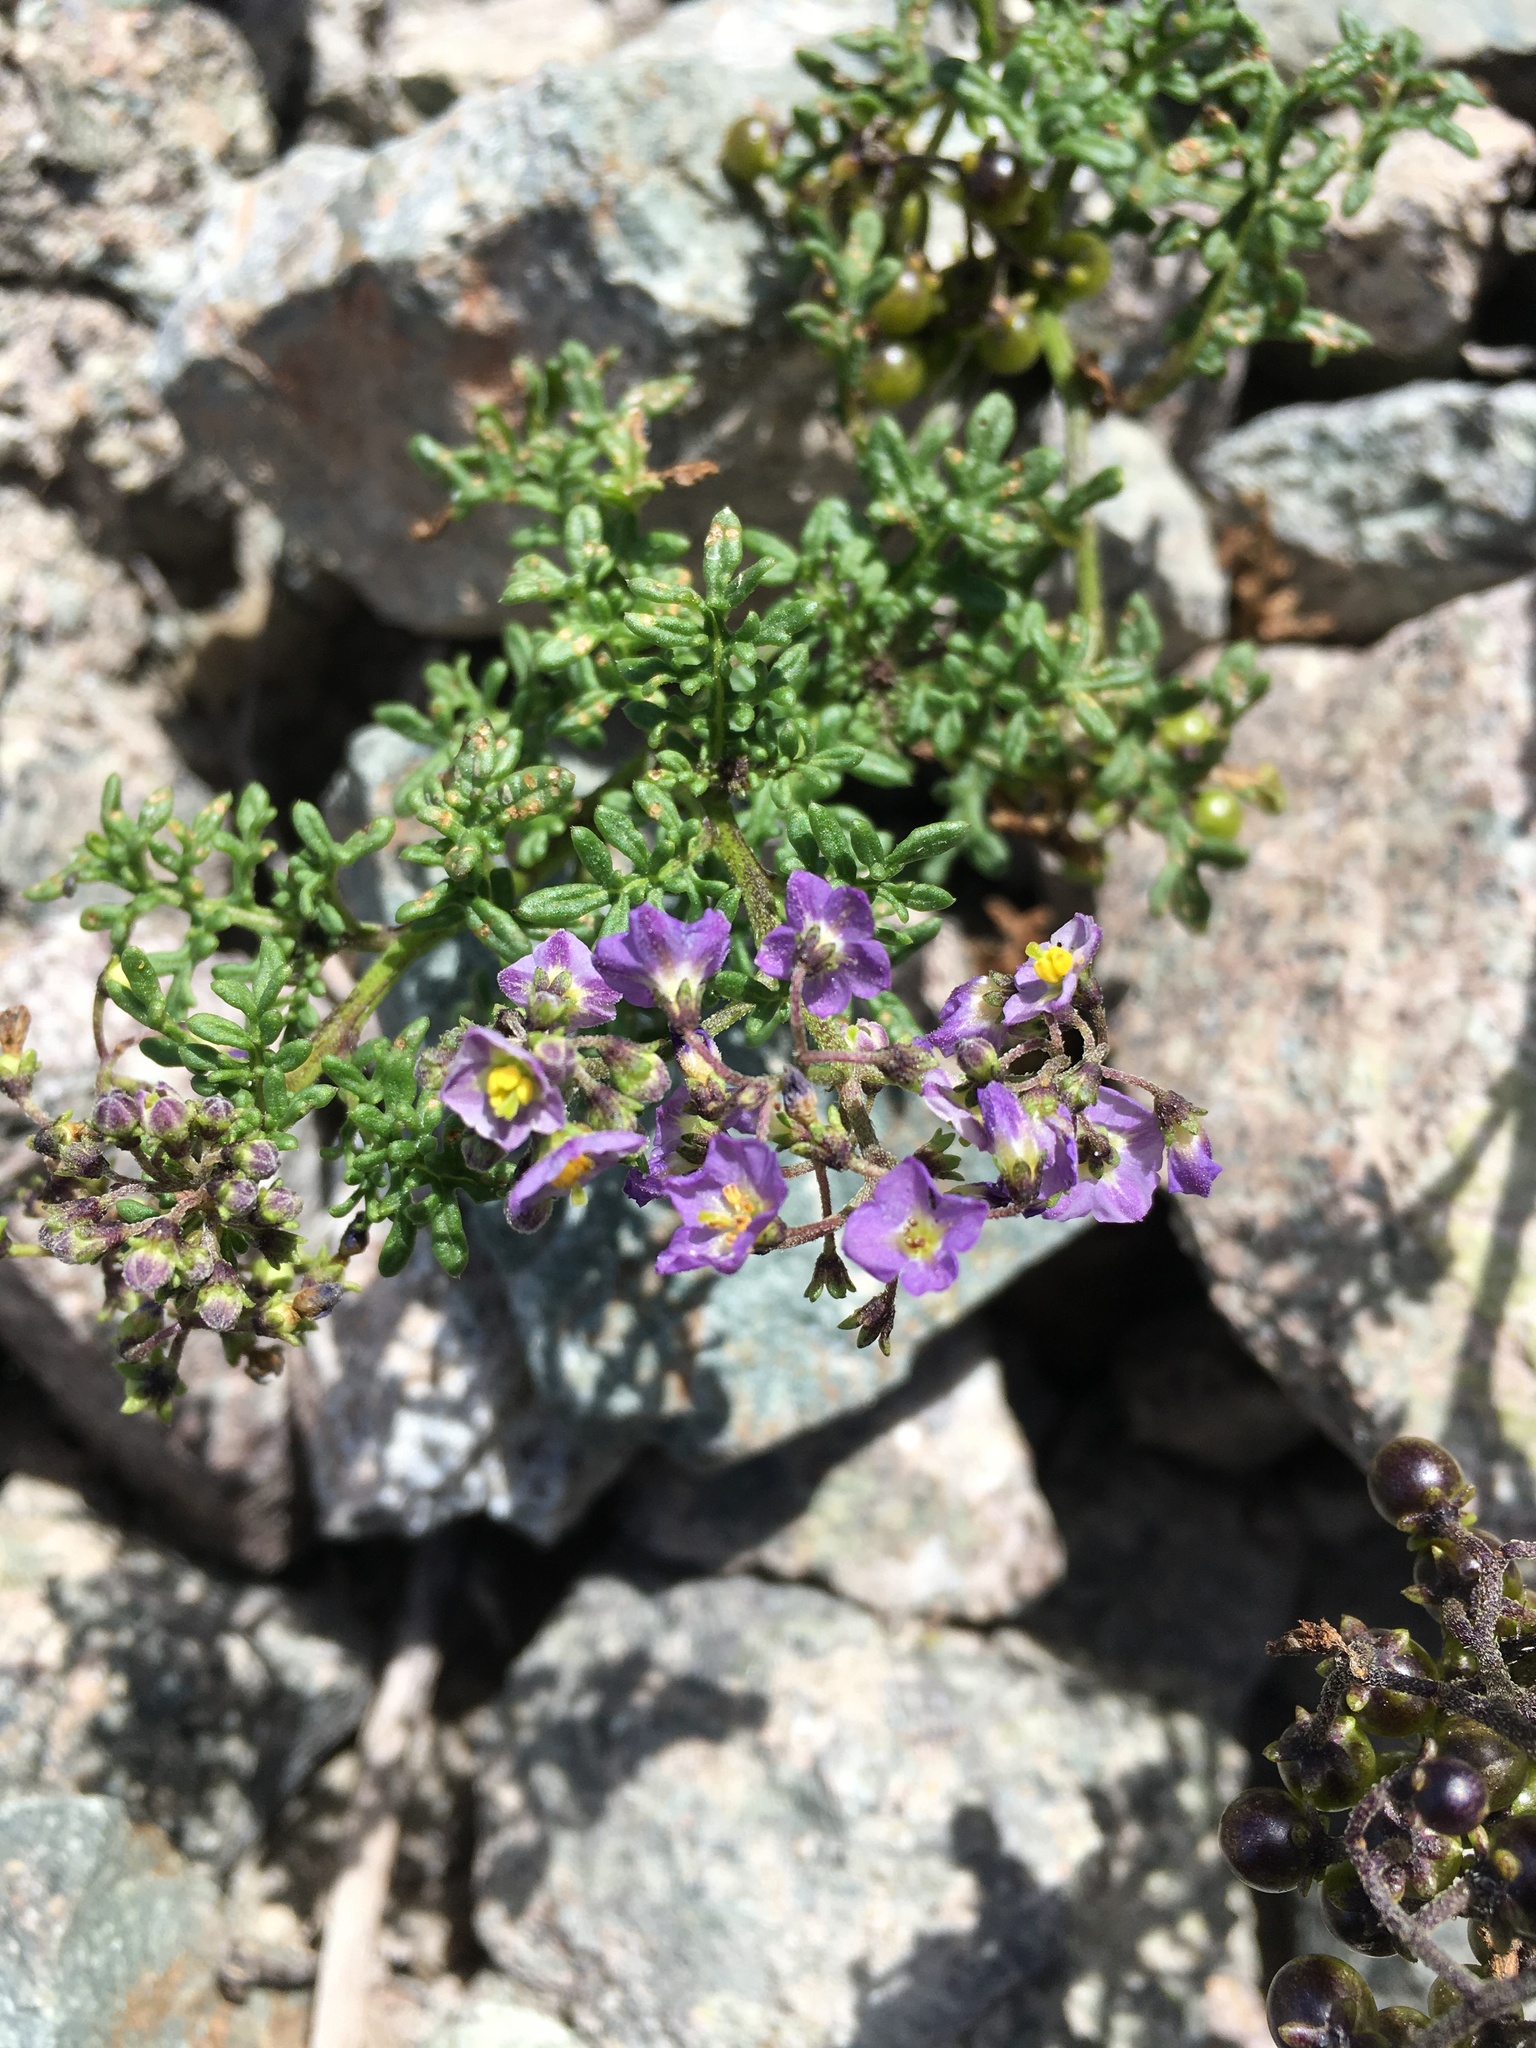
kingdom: Plantae
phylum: Tracheophyta
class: Magnoliopsida
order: Solanales
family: Solanaceae
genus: Solanum
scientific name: Solanum brachyantherum
